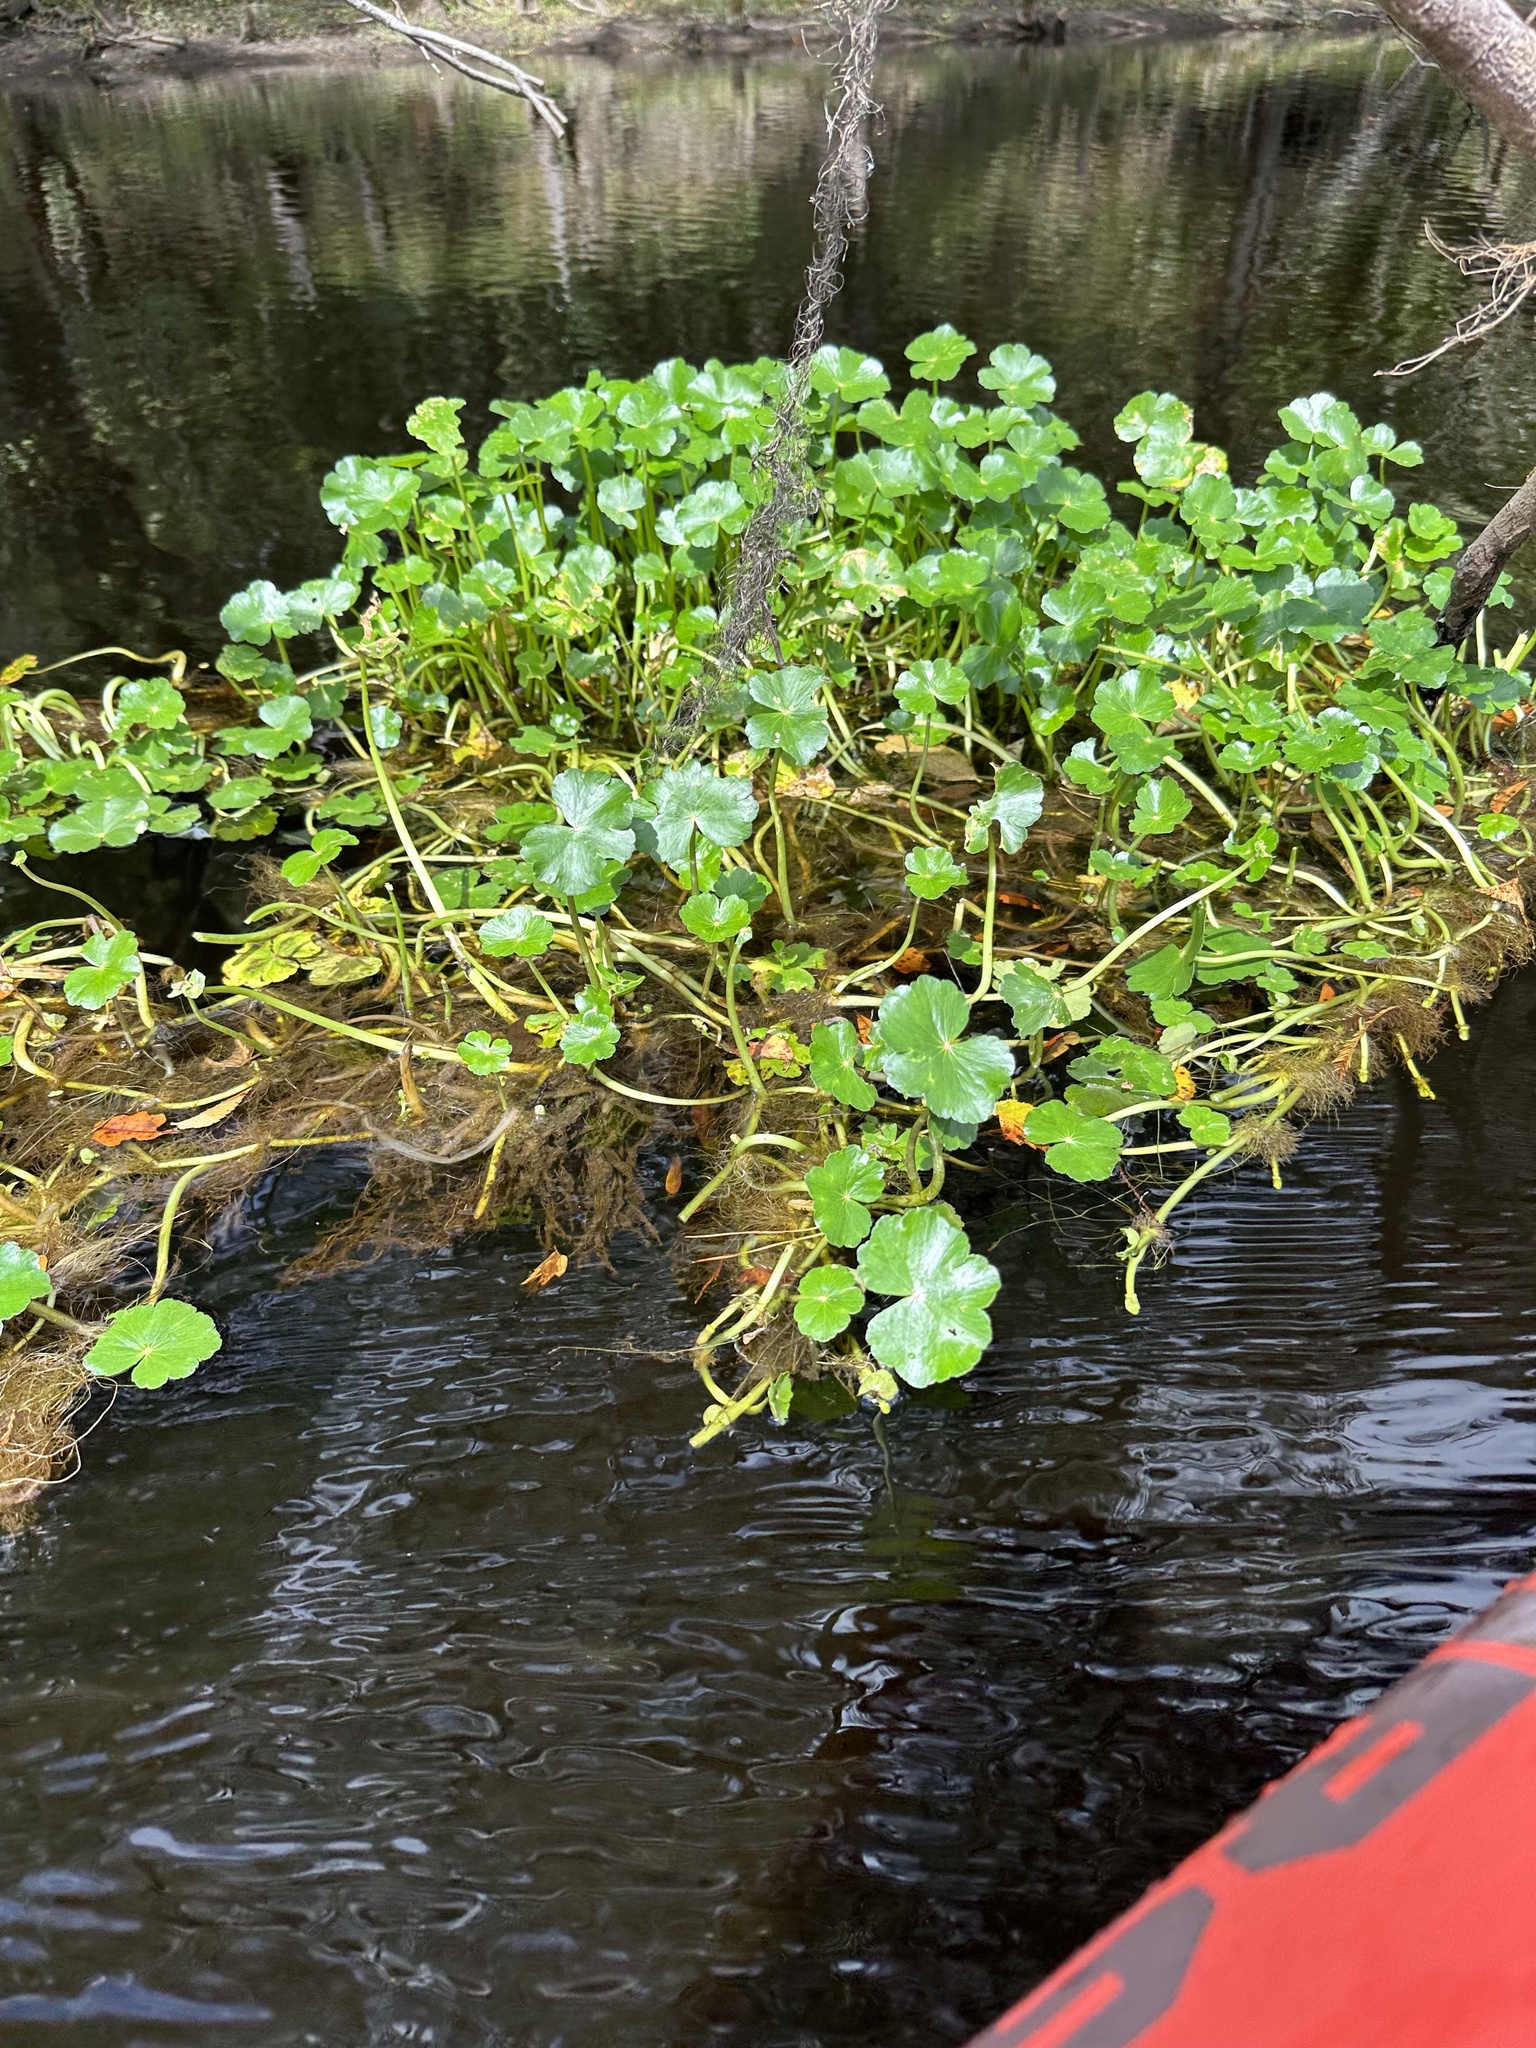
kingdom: Plantae
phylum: Tracheophyta
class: Magnoliopsida
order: Apiales
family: Araliaceae
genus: Hydrocotyle
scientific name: Hydrocotyle ranunculoides
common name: Floating pennywort
